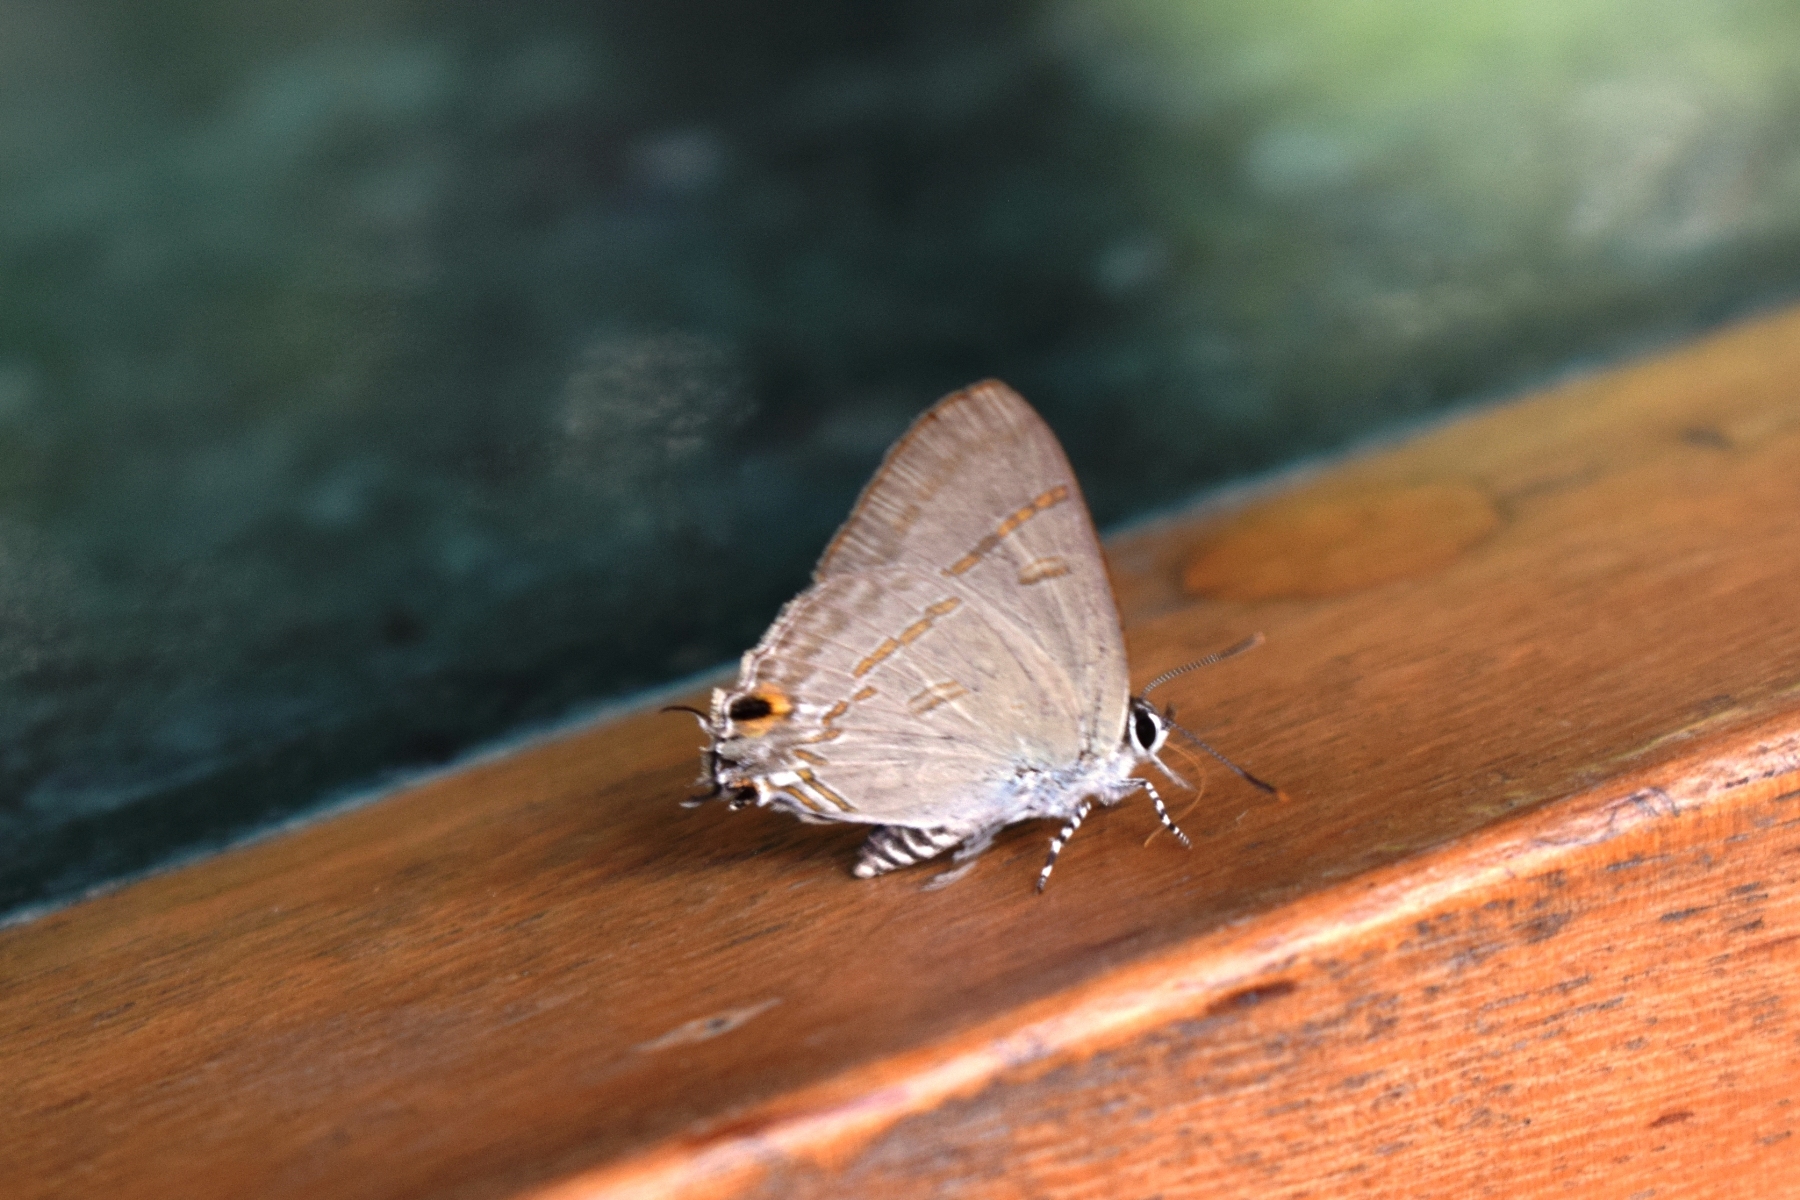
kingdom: Animalia
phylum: Arthropoda
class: Insecta
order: Lepidoptera
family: Lycaenidae
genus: Hypolycaena
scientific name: Hypolycaena erylus
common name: Common tit
